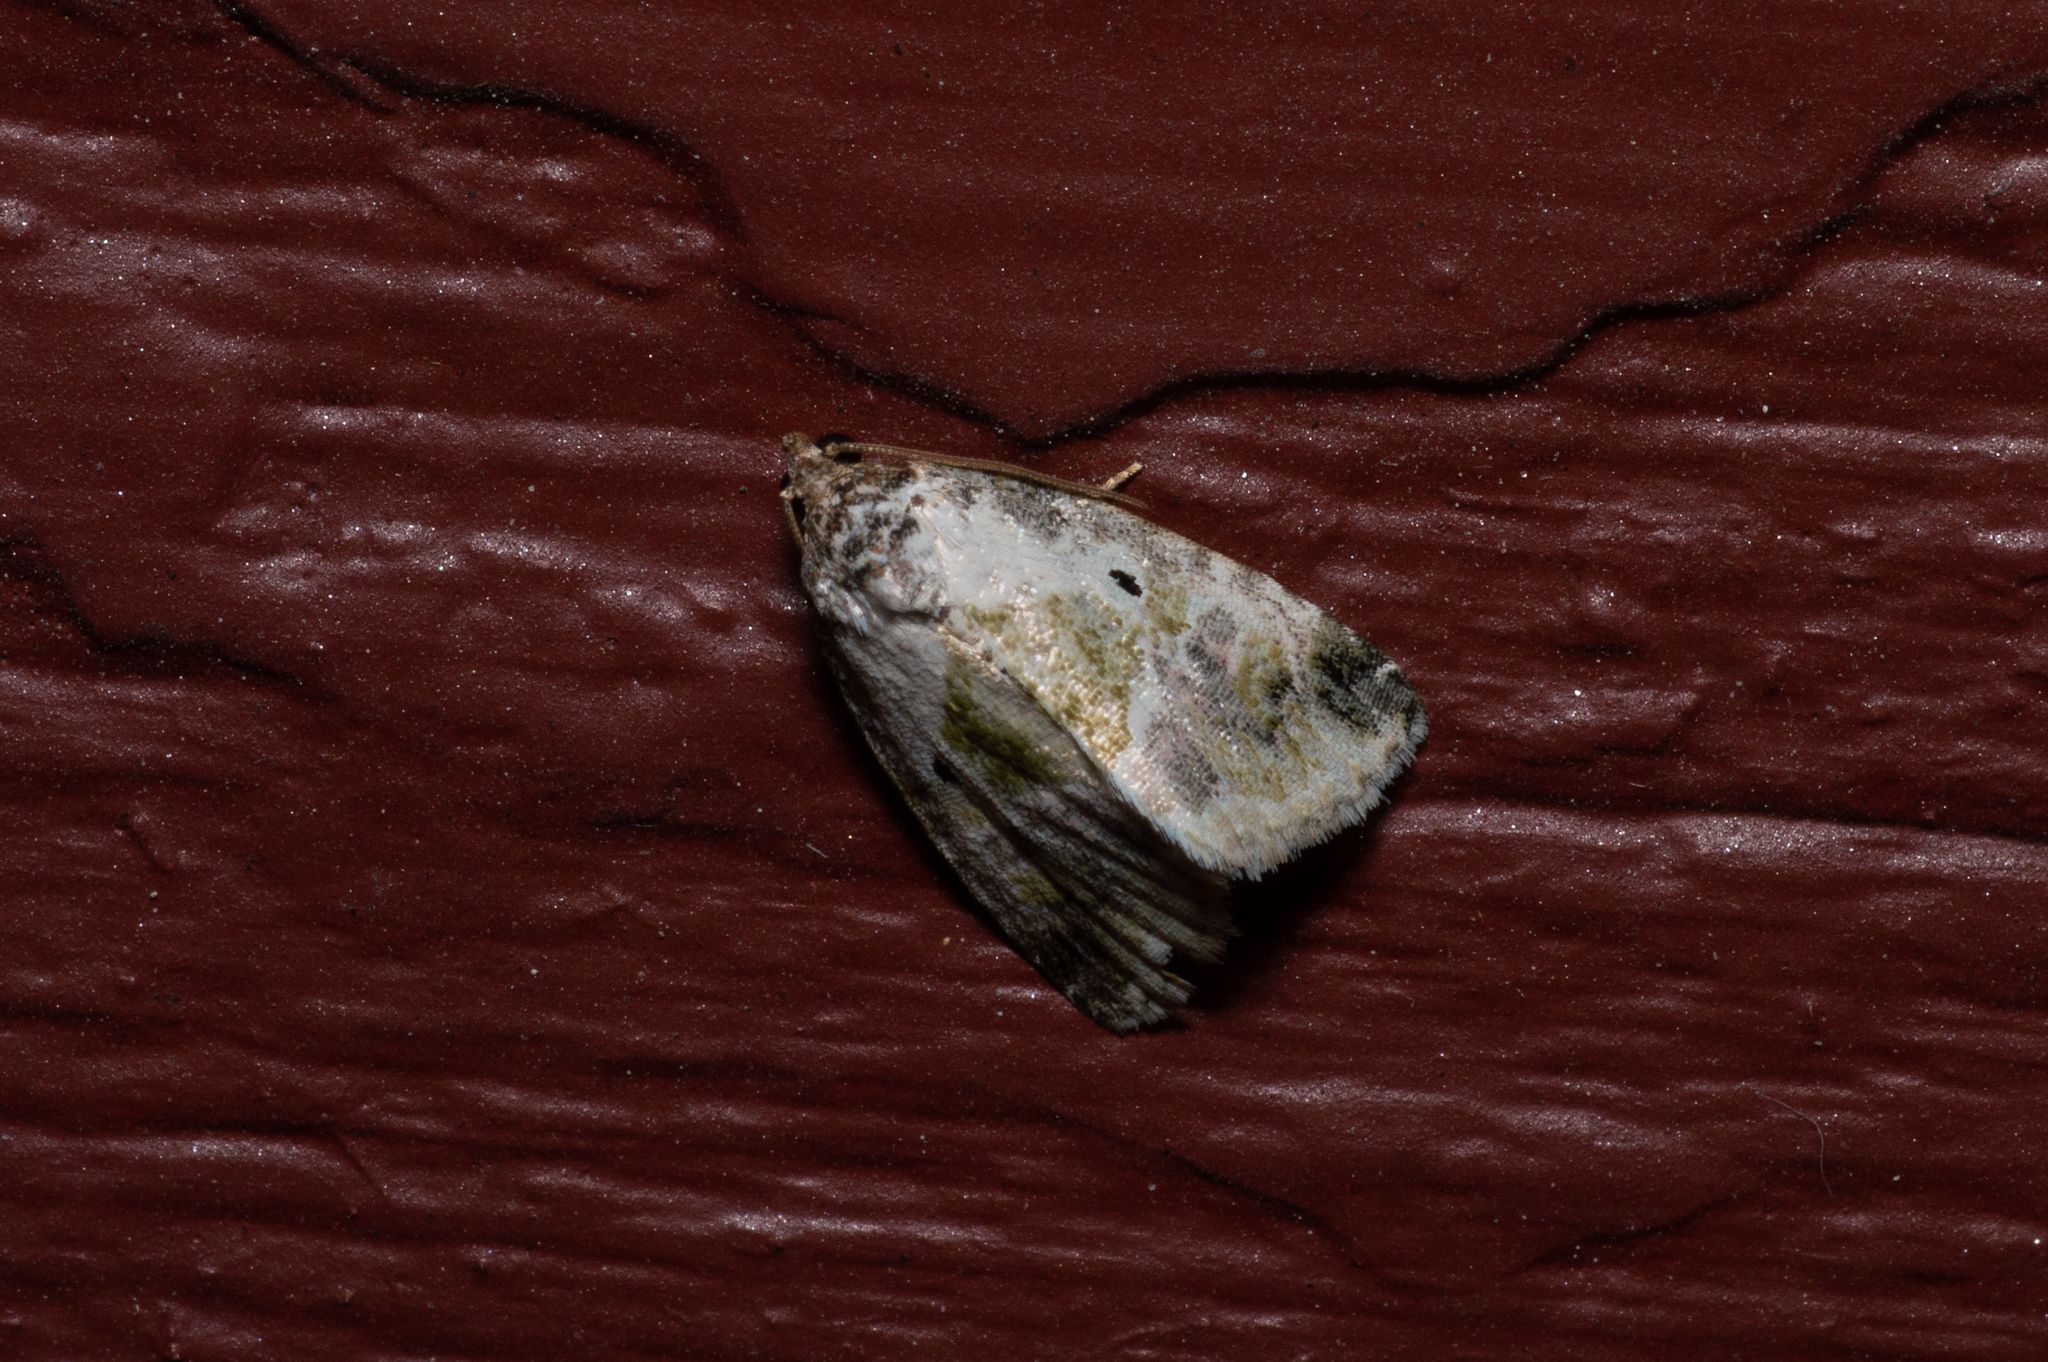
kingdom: Animalia
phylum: Arthropoda
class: Insecta
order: Lepidoptera
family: Noctuidae
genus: Maliattha
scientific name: Maliattha synochitis
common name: Black-dotted glyph
